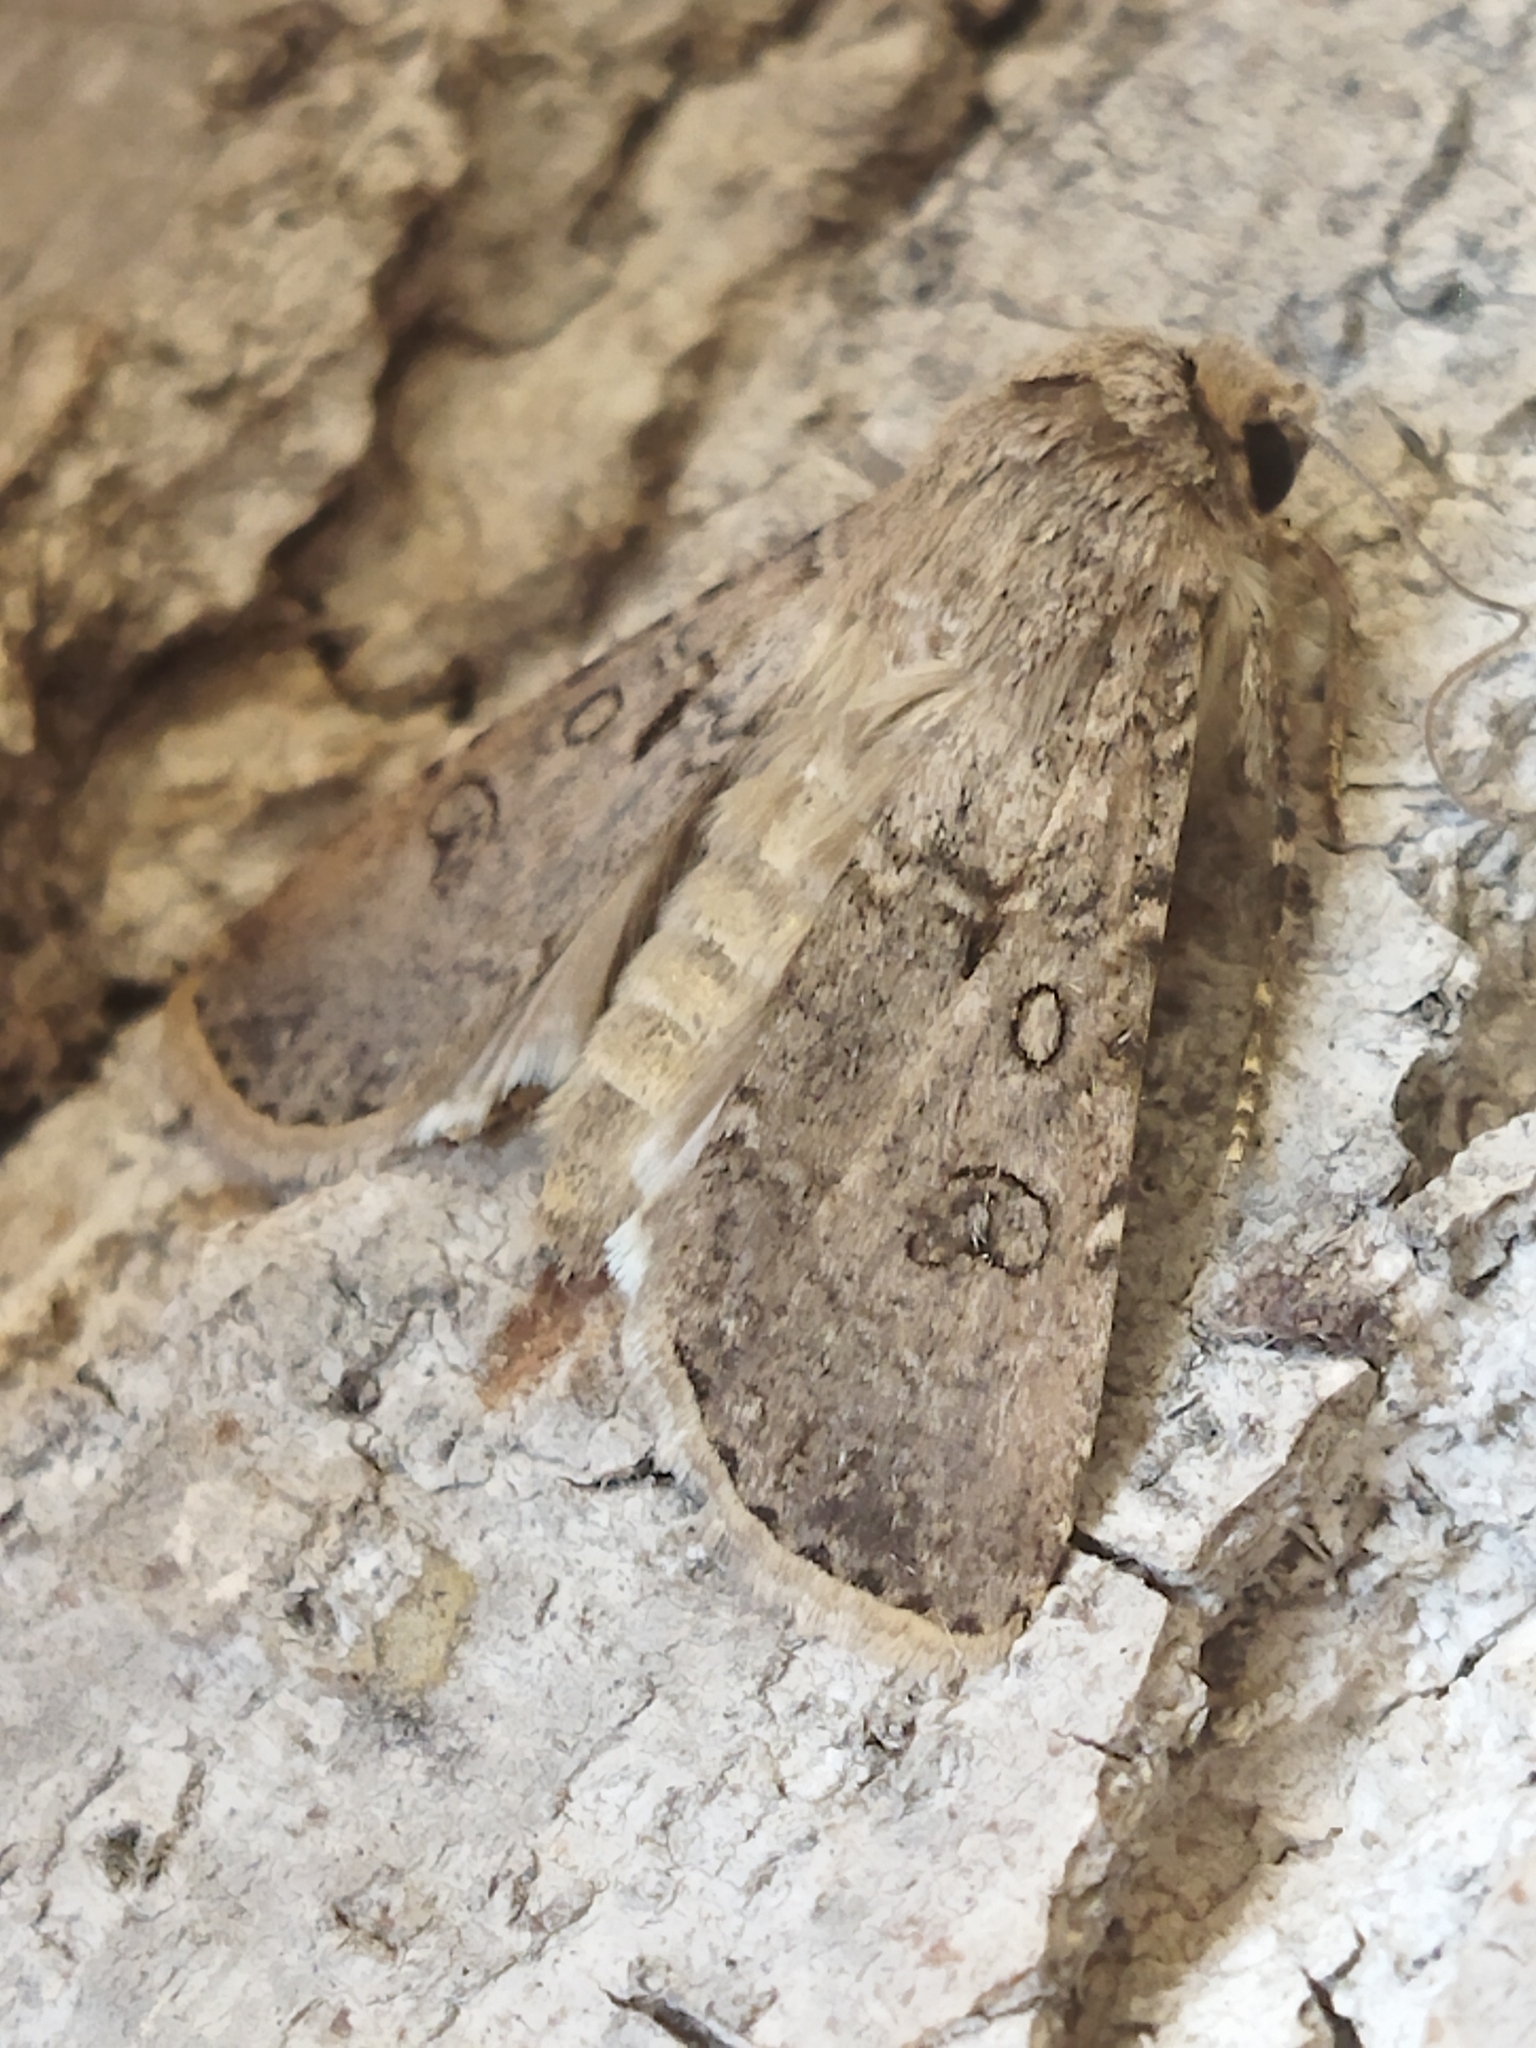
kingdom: Animalia
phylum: Arthropoda
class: Insecta
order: Lepidoptera
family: Noctuidae
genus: Agrotis
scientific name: Agrotis segetum
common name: Turnip moth
